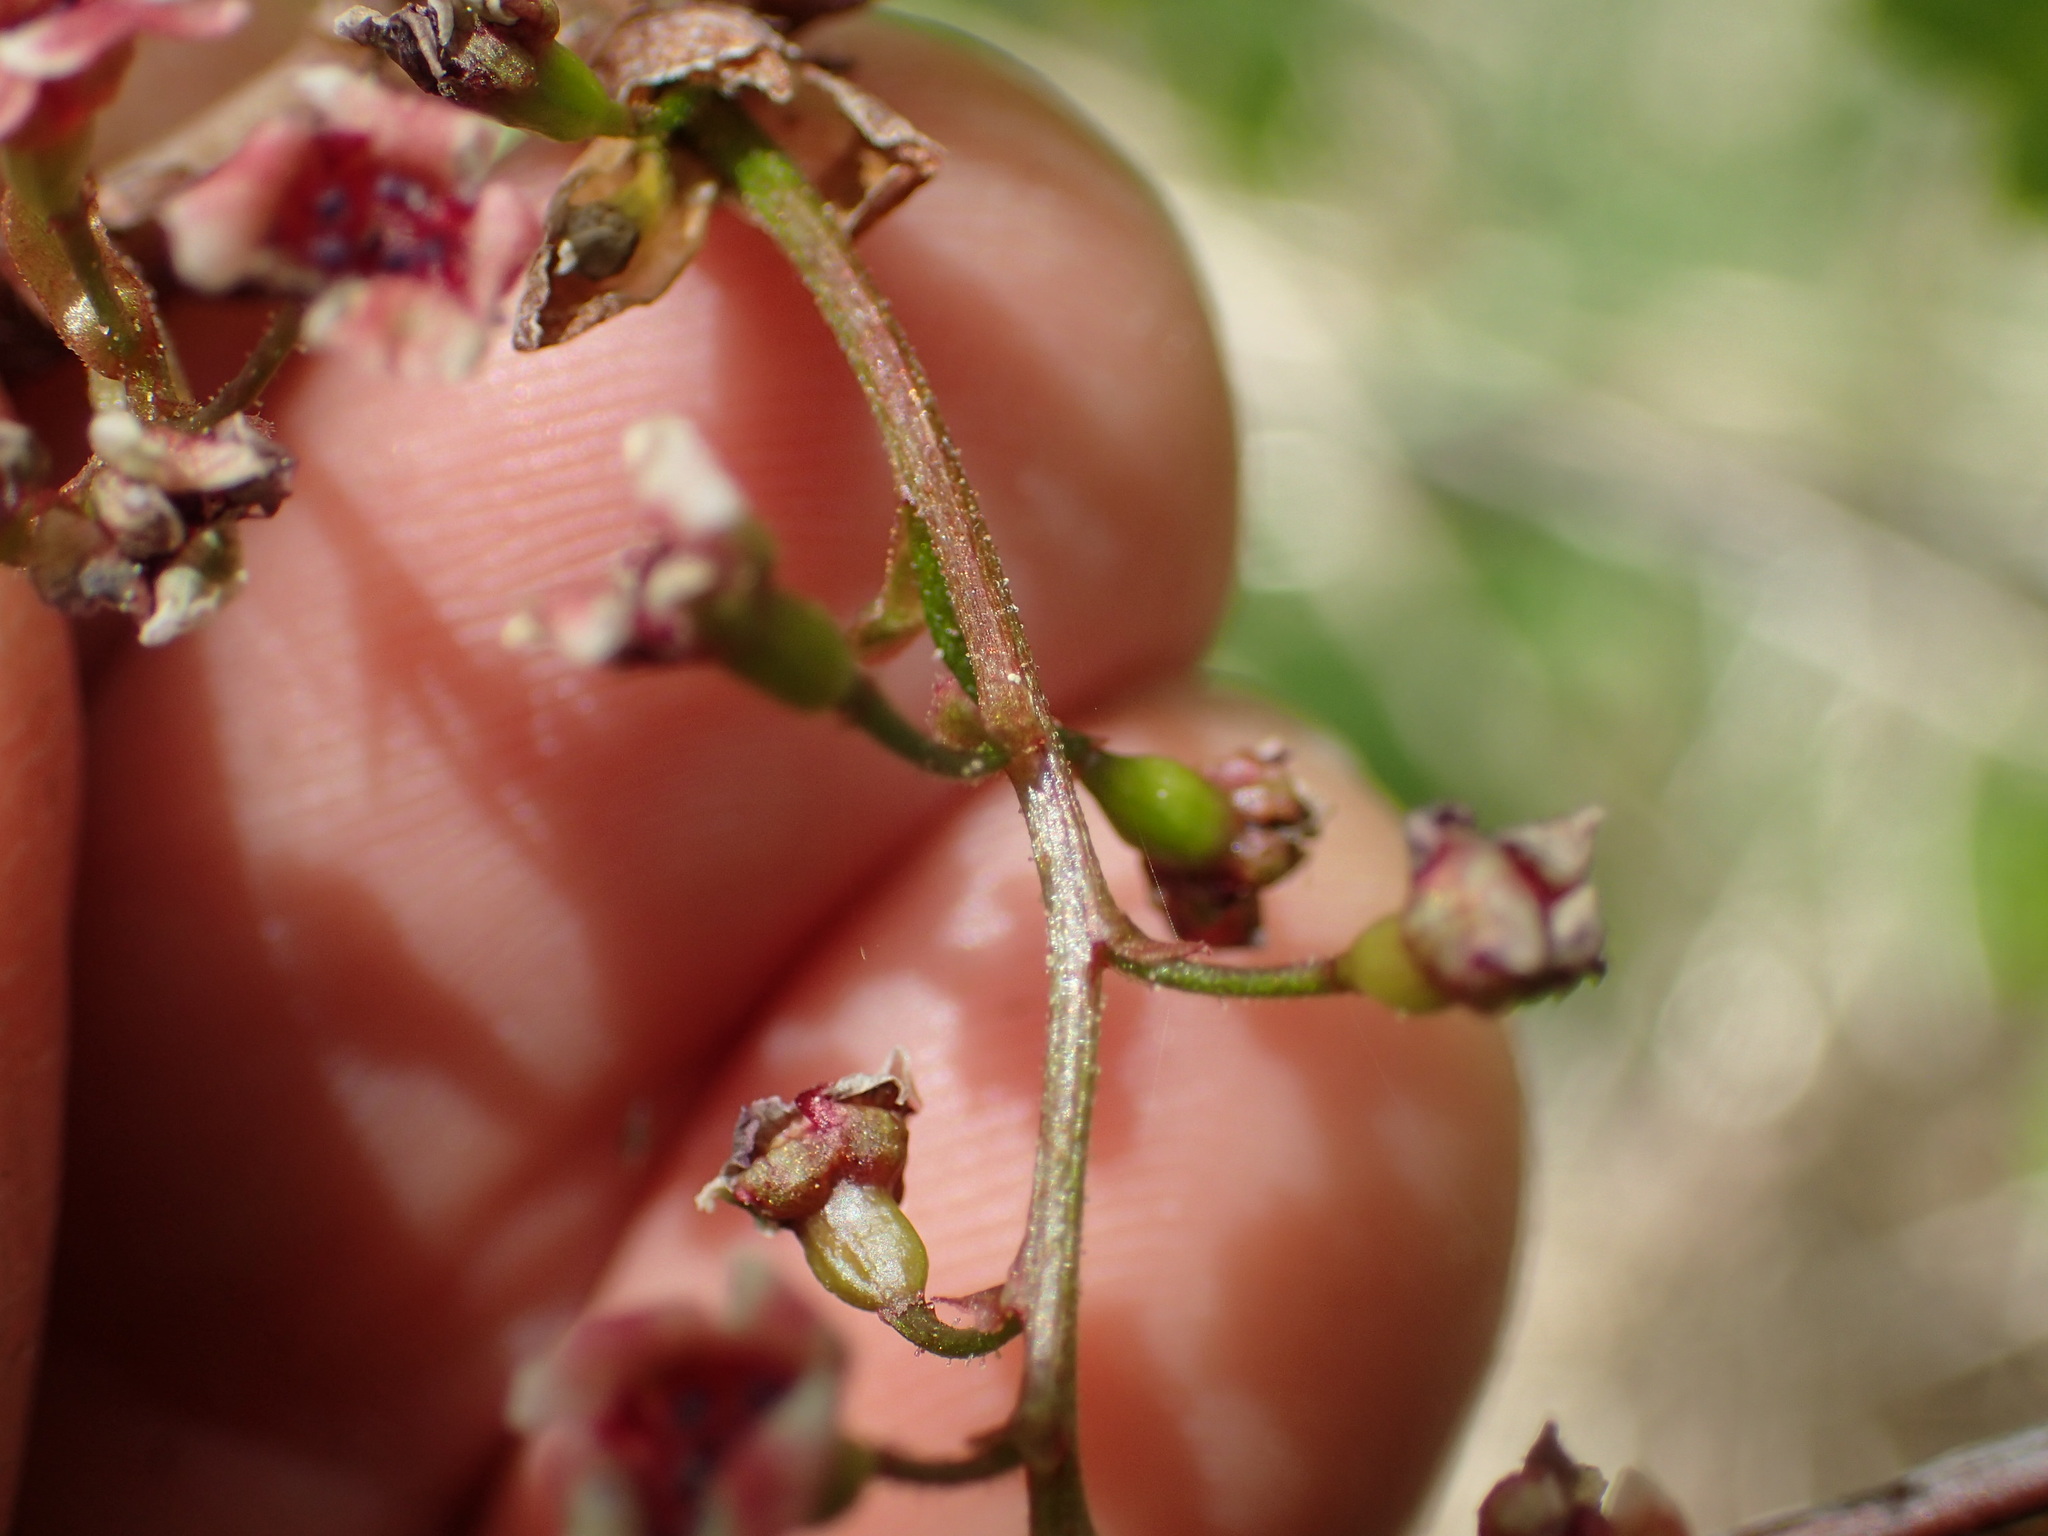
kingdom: Plantae
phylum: Tracheophyta
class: Magnoliopsida
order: Saxifragales
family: Grossulariaceae
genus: Ribes
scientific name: Ribes triste
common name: Swamp red currant
